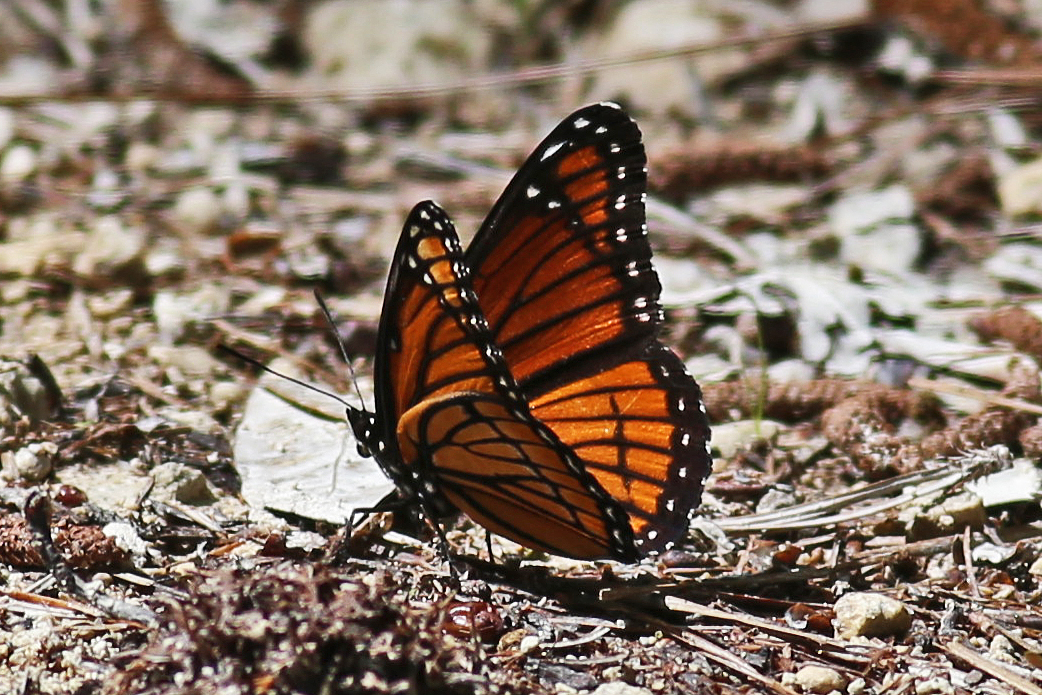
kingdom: Animalia
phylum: Arthropoda
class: Insecta
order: Lepidoptera
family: Nymphalidae
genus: Limenitis
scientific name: Limenitis archippus
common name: Viceroy
